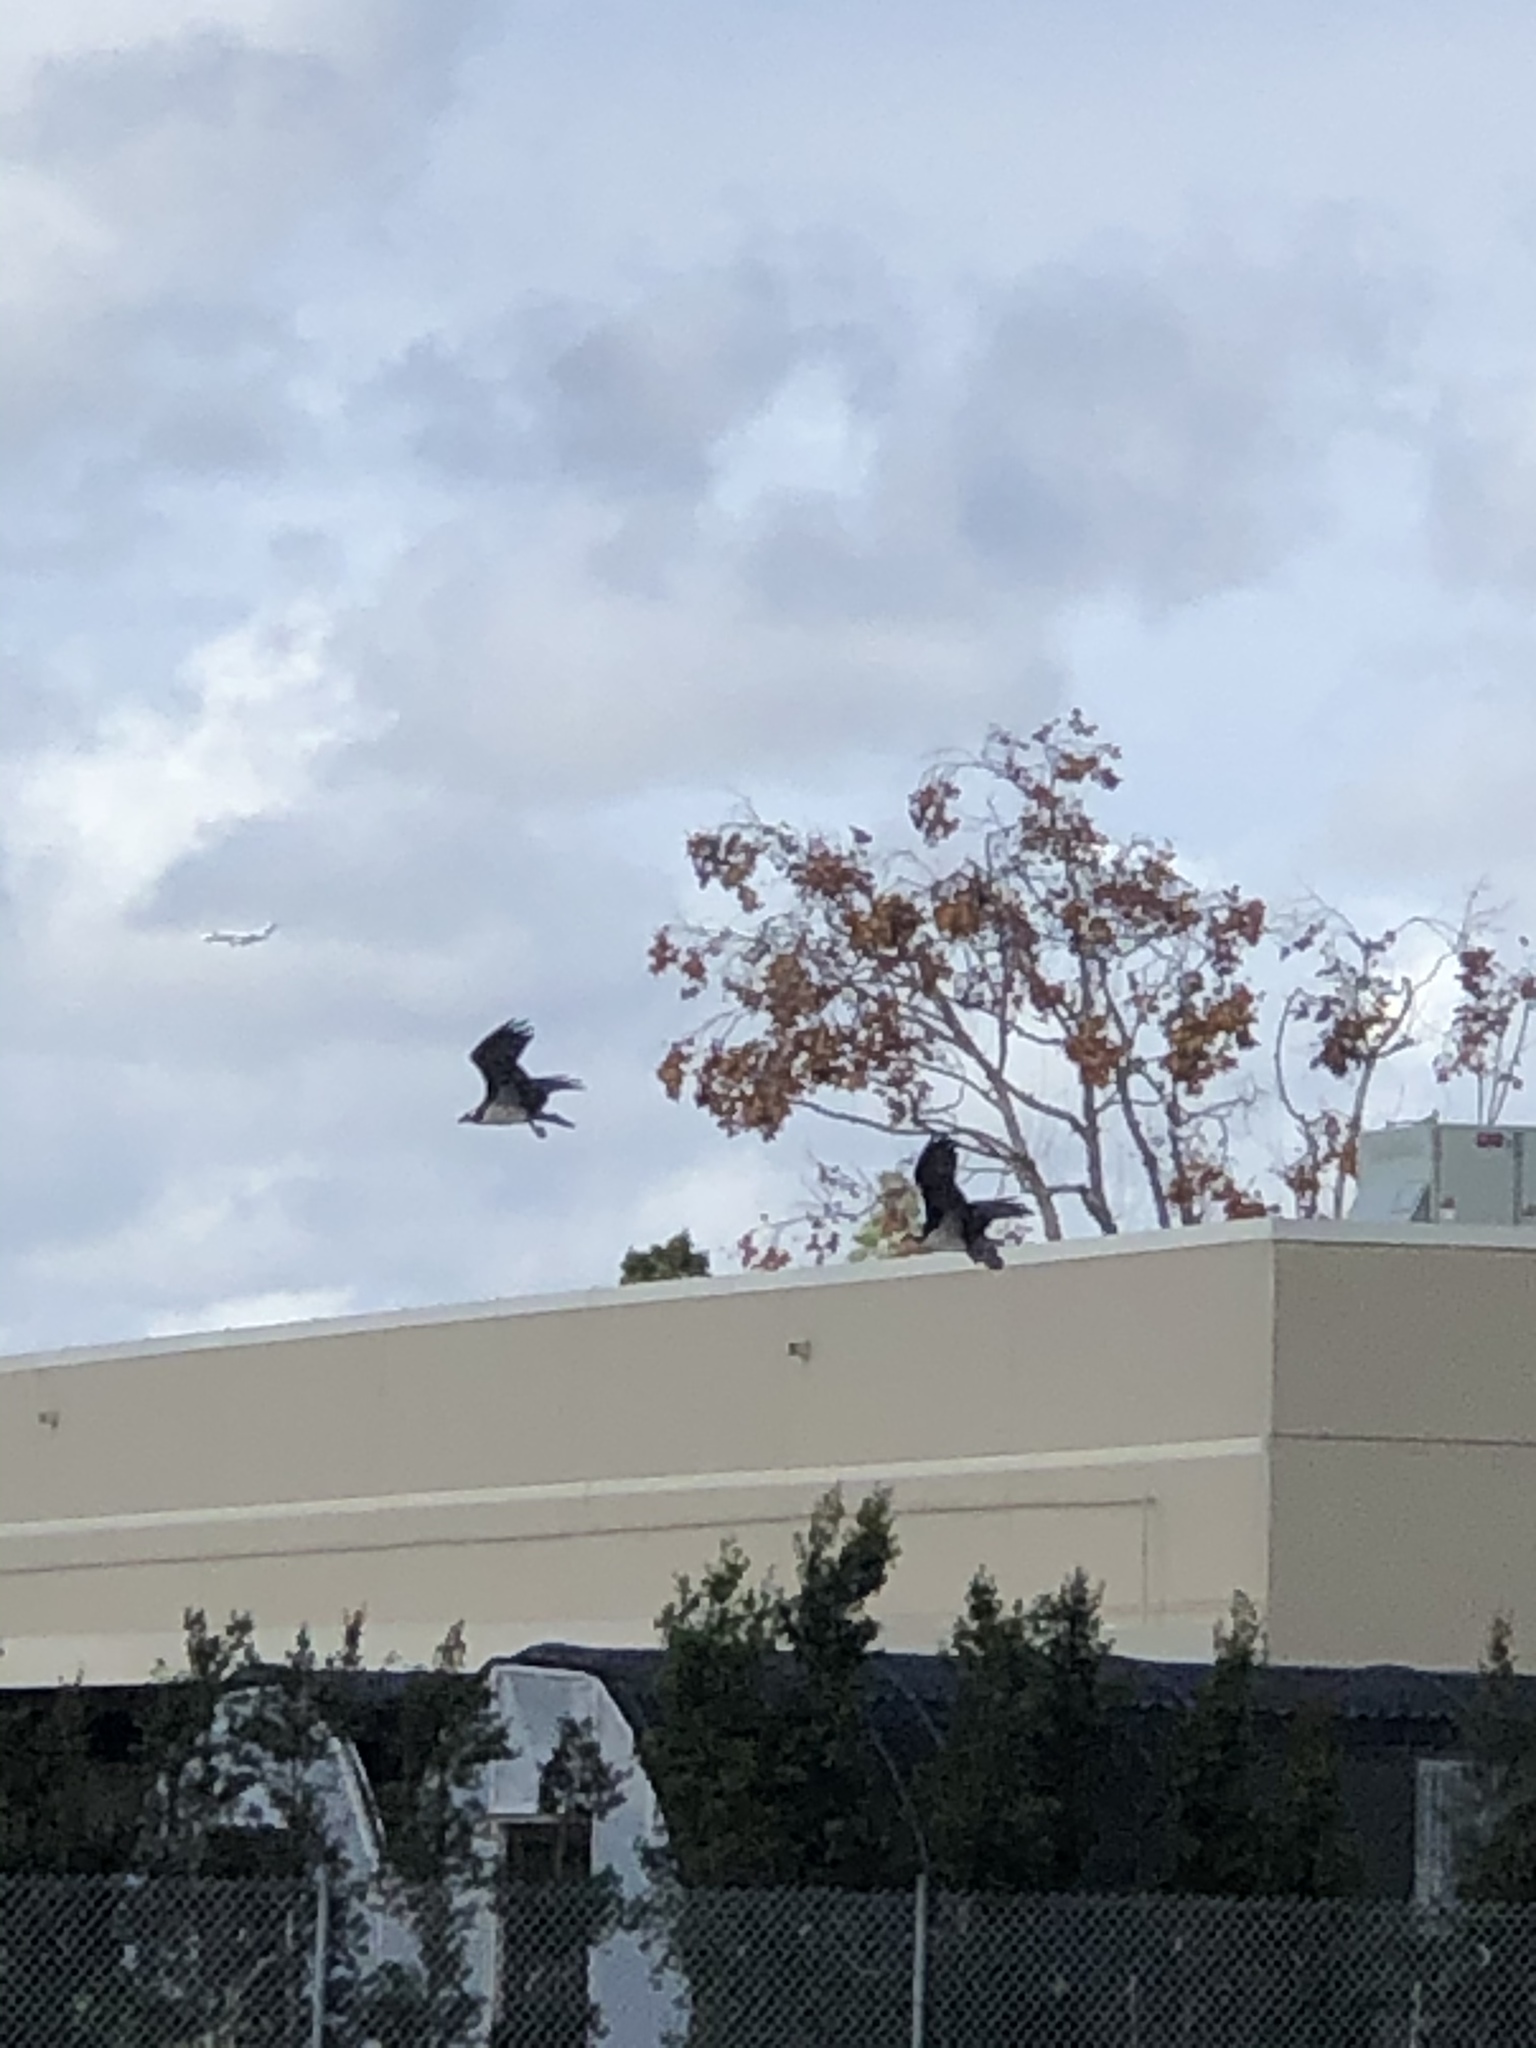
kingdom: Animalia
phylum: Chordata
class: Aves
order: Accipitriformes
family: Pandionidae
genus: Pandion
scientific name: Pandion haliaetus
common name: Osprey
